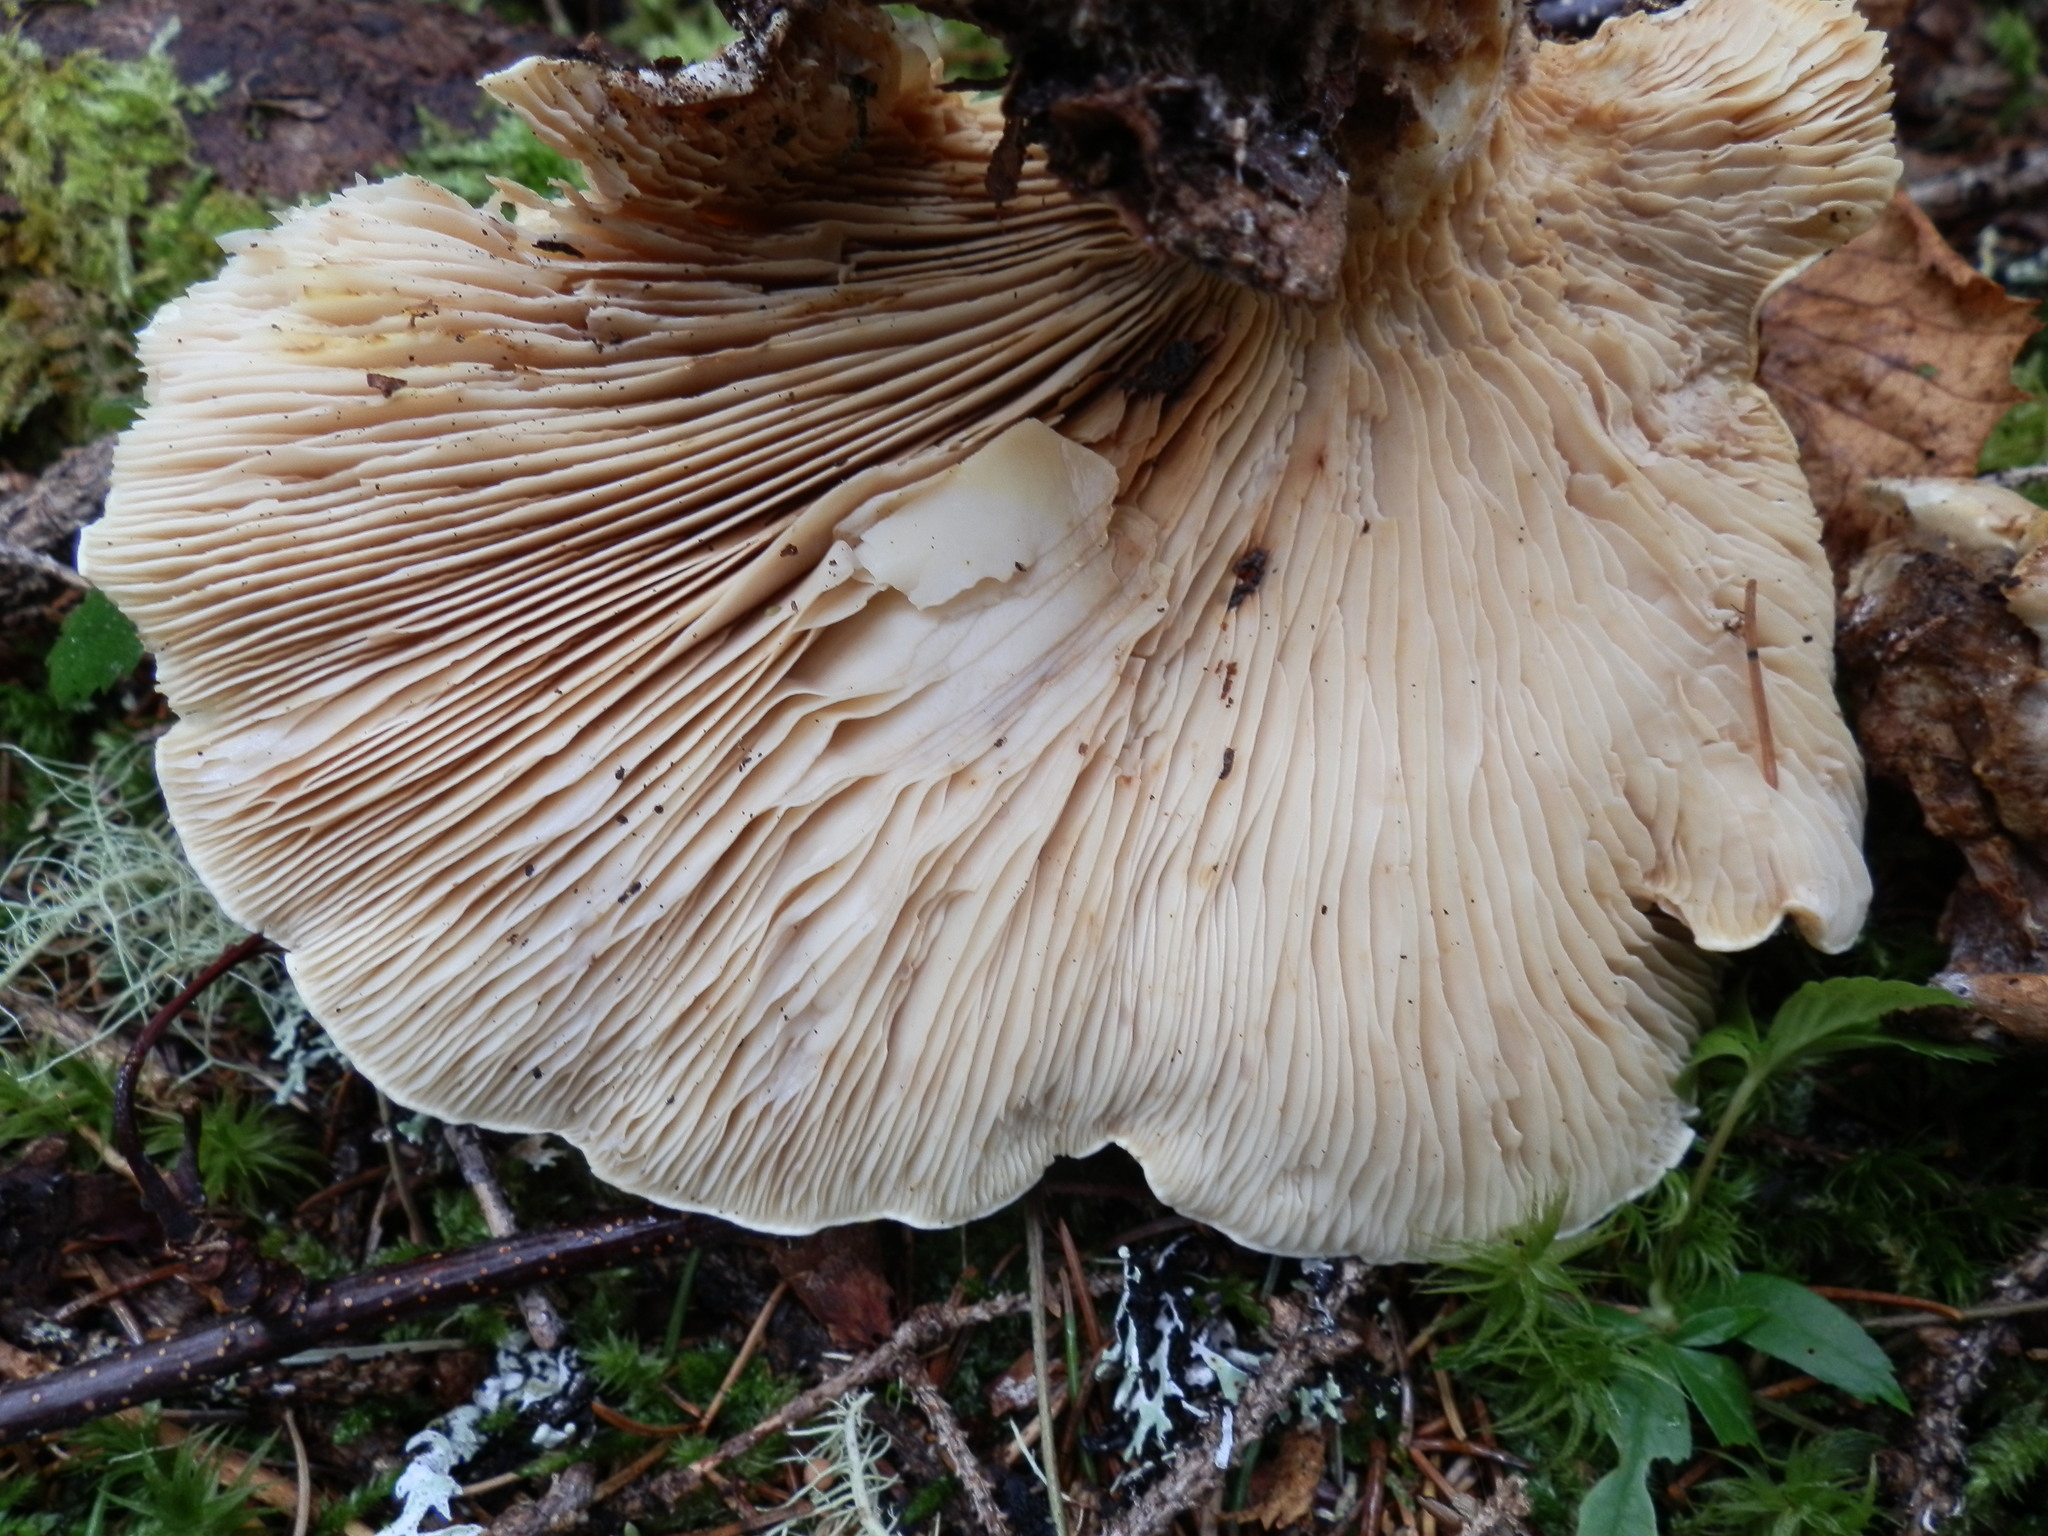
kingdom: Fungi
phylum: Basidiomycota
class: Agaricomycetes
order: Boletales
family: Tapinellaceae
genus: Tapinella
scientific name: Tapinella atrotomentosa
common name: Velvet rollrim
